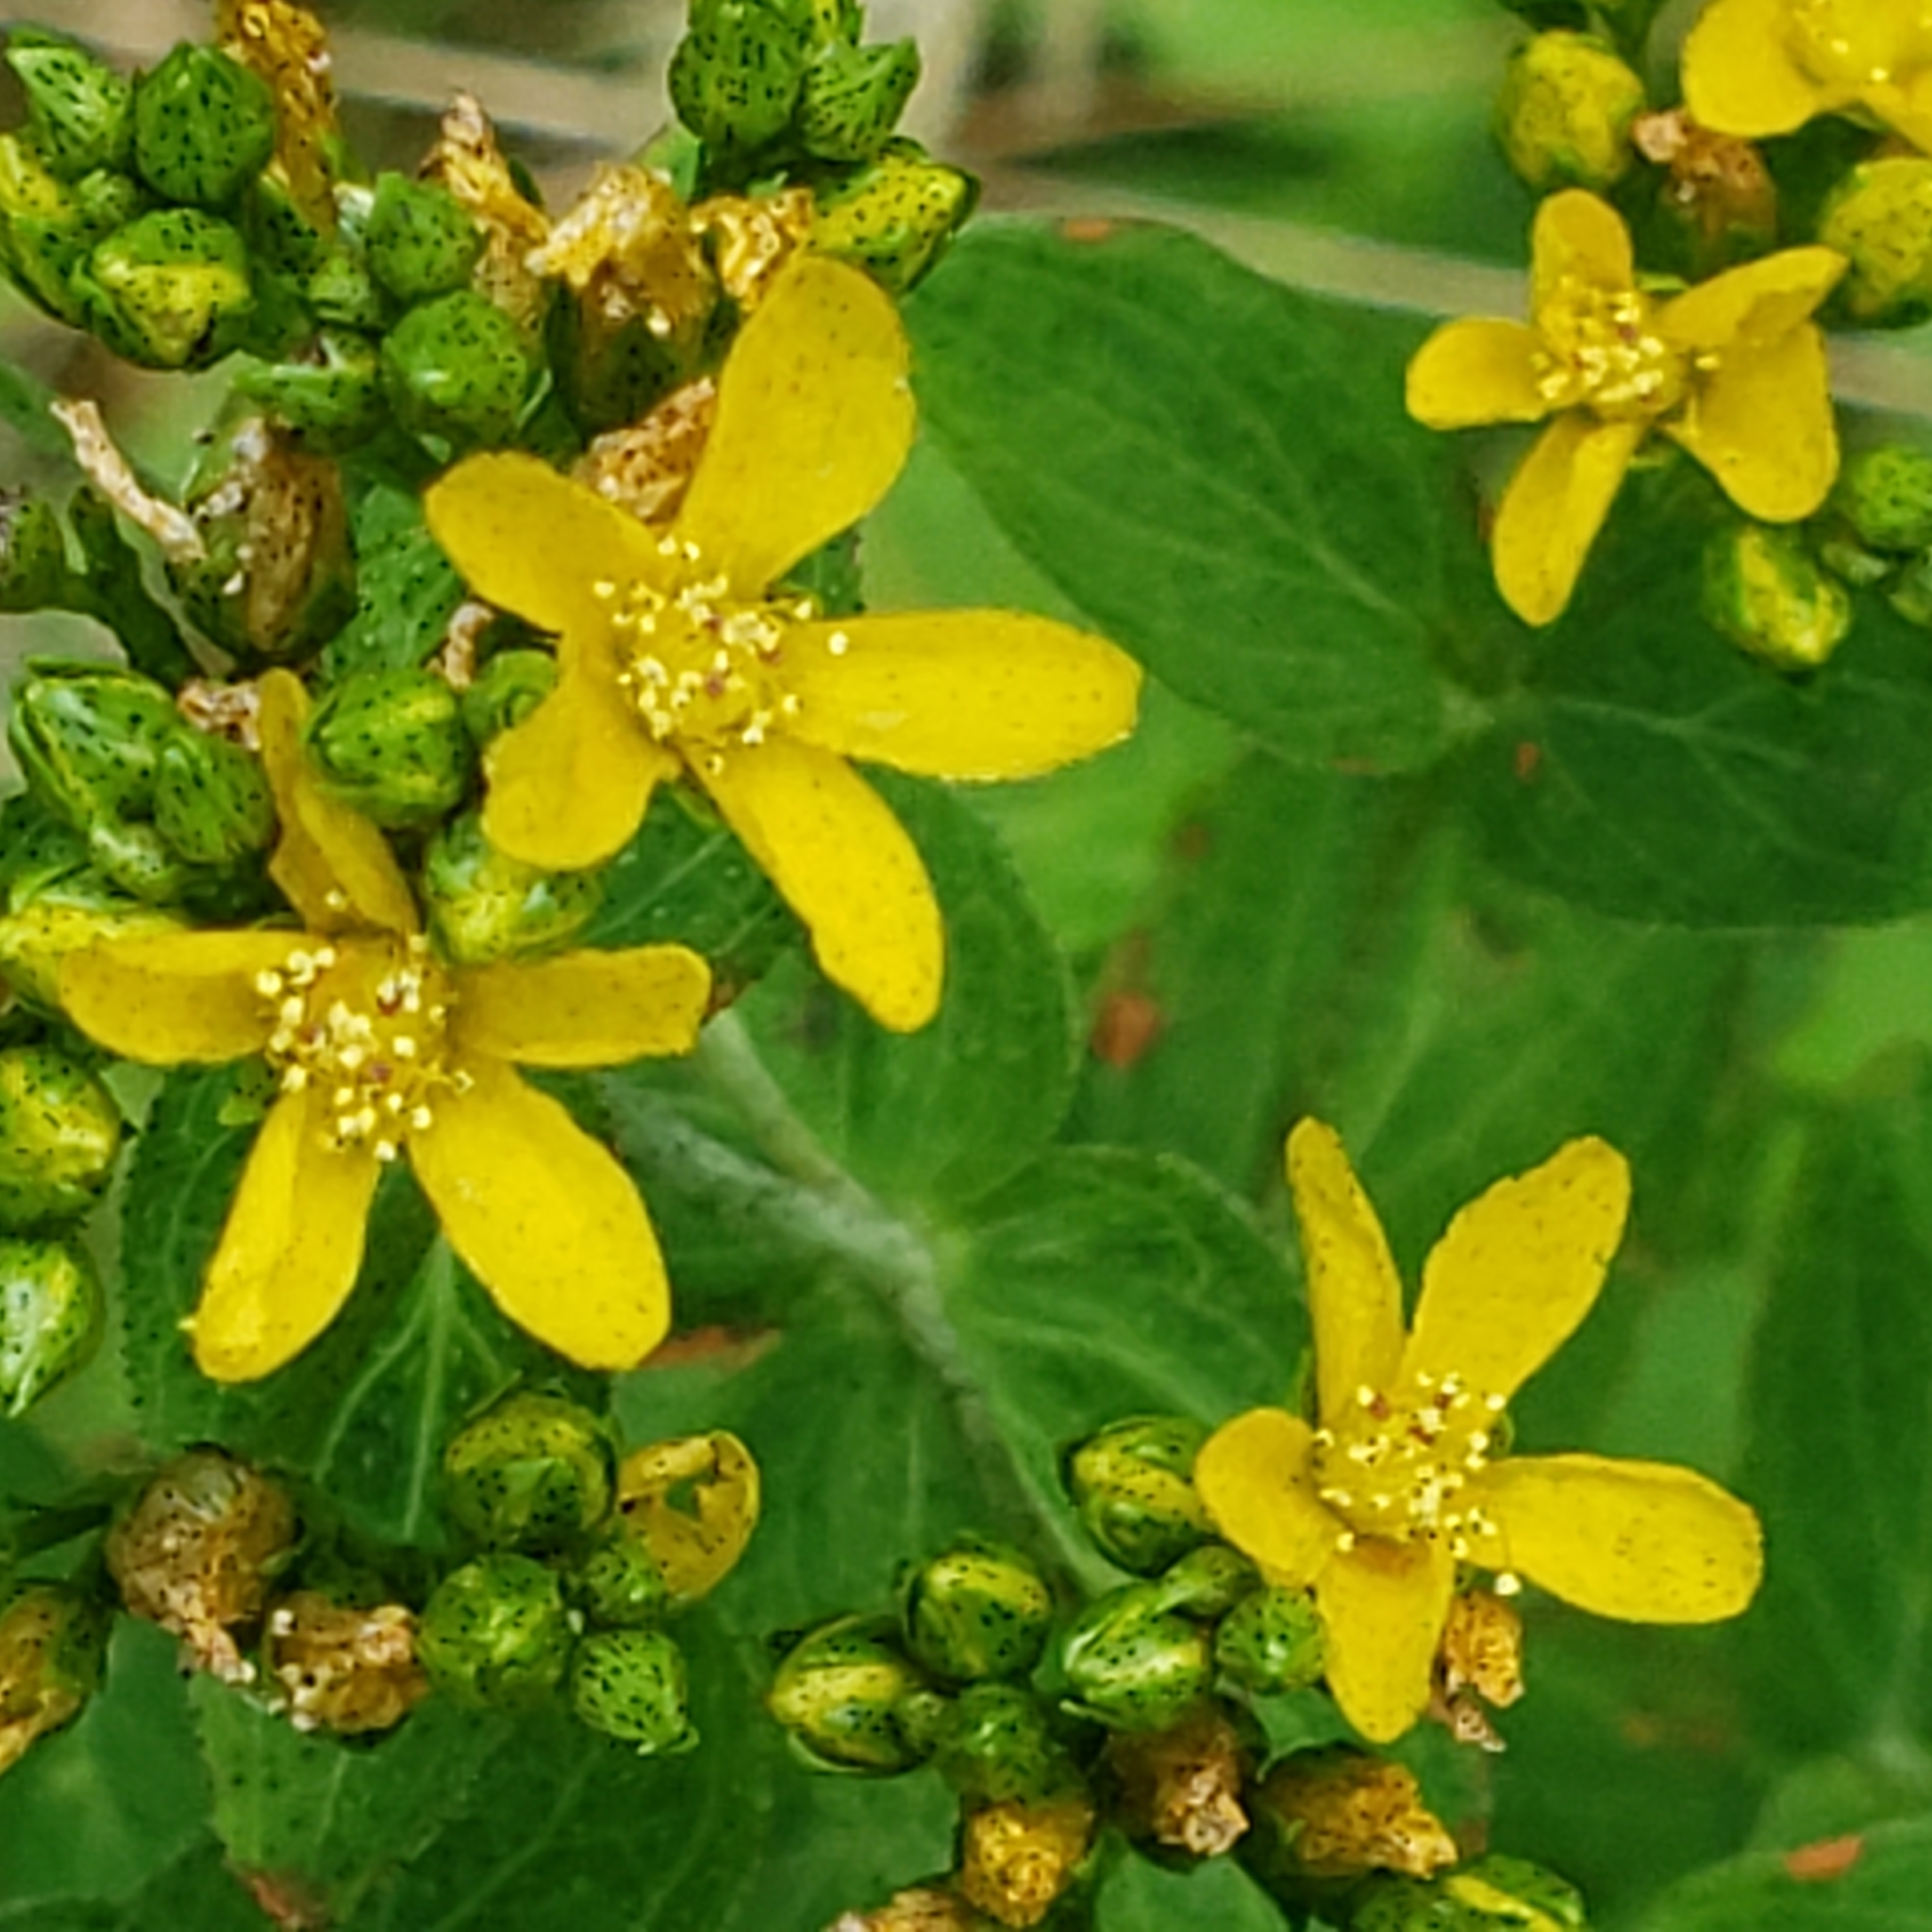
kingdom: Plantae
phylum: Tracheophyta
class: Magnoliopsida
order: Malpighiales
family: Hypericaceae
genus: Hypericum
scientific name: Hypericum punctatum
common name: Spotted st. john's-wort
